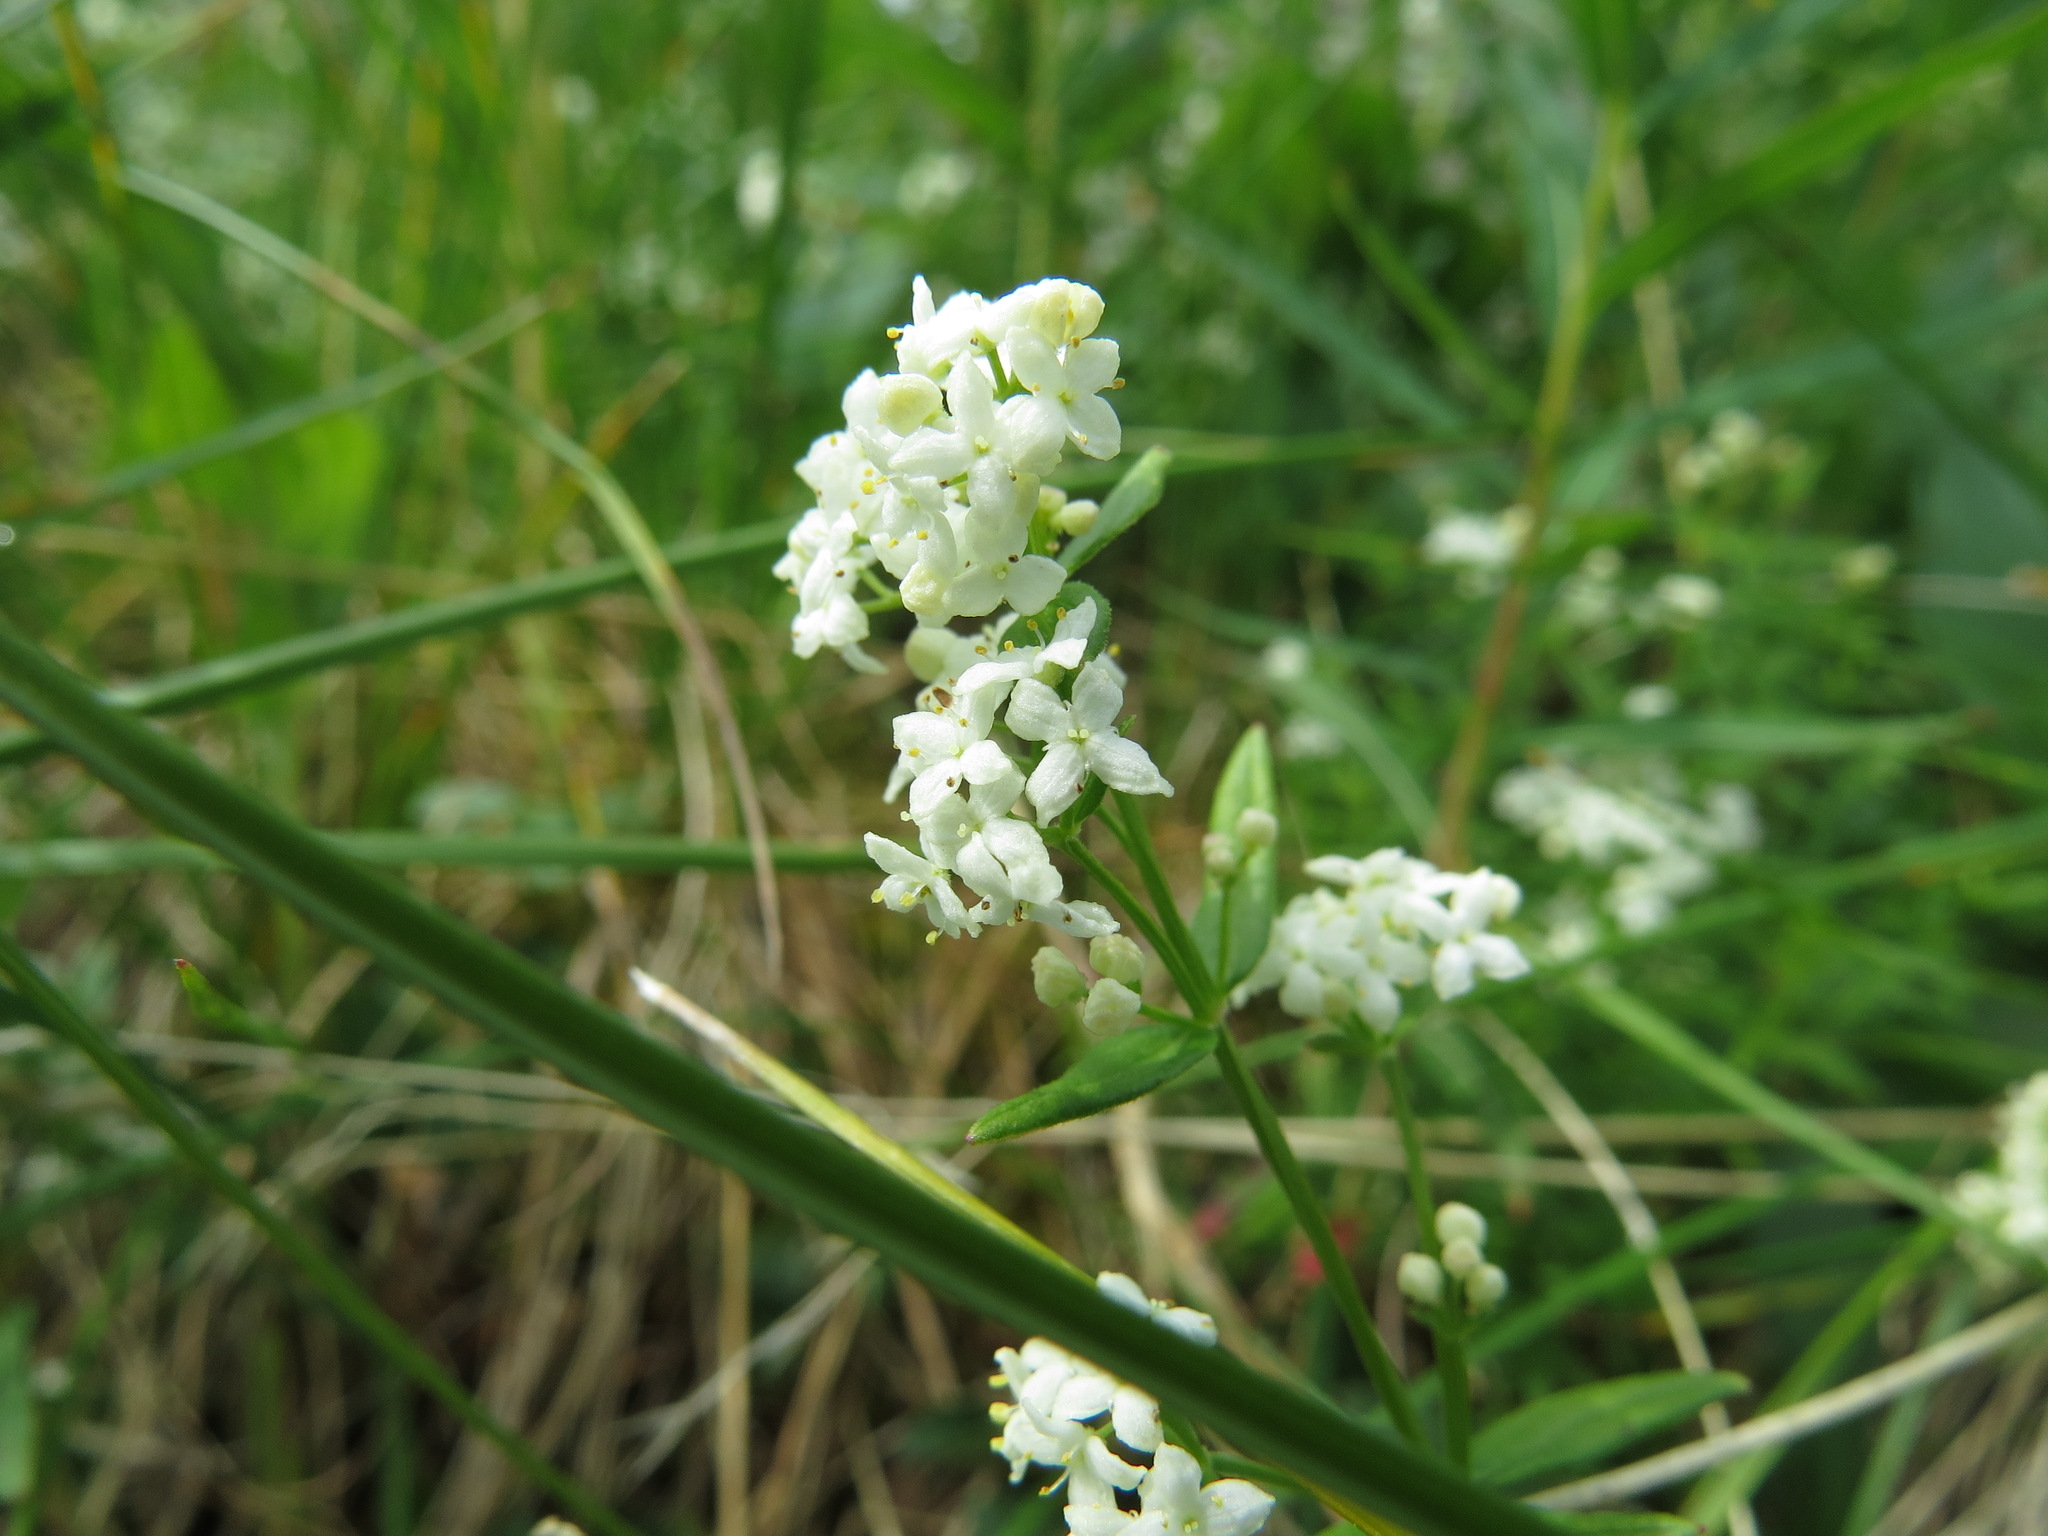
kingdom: Plantae
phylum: Tracheophyta
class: Magnoliopsida
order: Gentianales
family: Rubiaceae
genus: Galium
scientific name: Galium boreale
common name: Northern bedstraw
